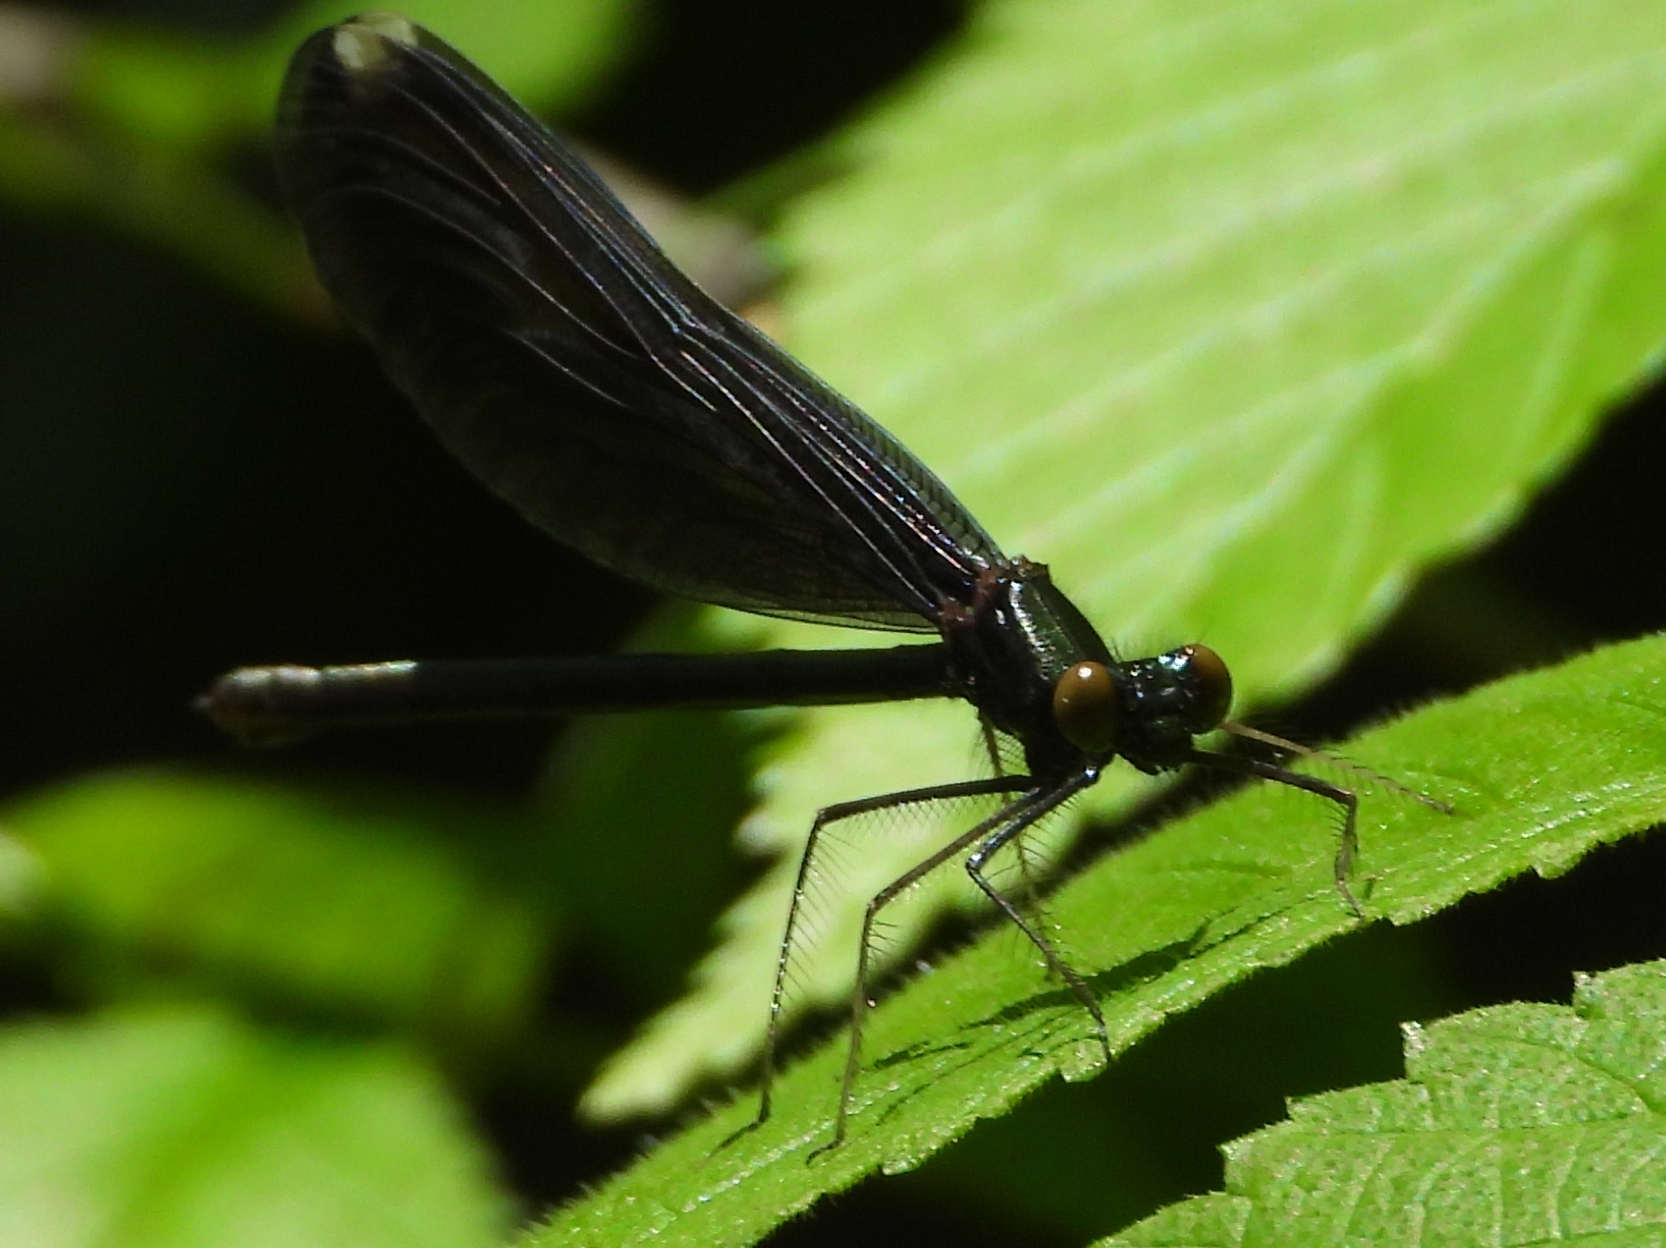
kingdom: Animalia
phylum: Arthropoda
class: Insecta
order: Odonata
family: Calopterygidae
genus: Calopteryx
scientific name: Calopteryx maculata
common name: Ebony jewelwing
